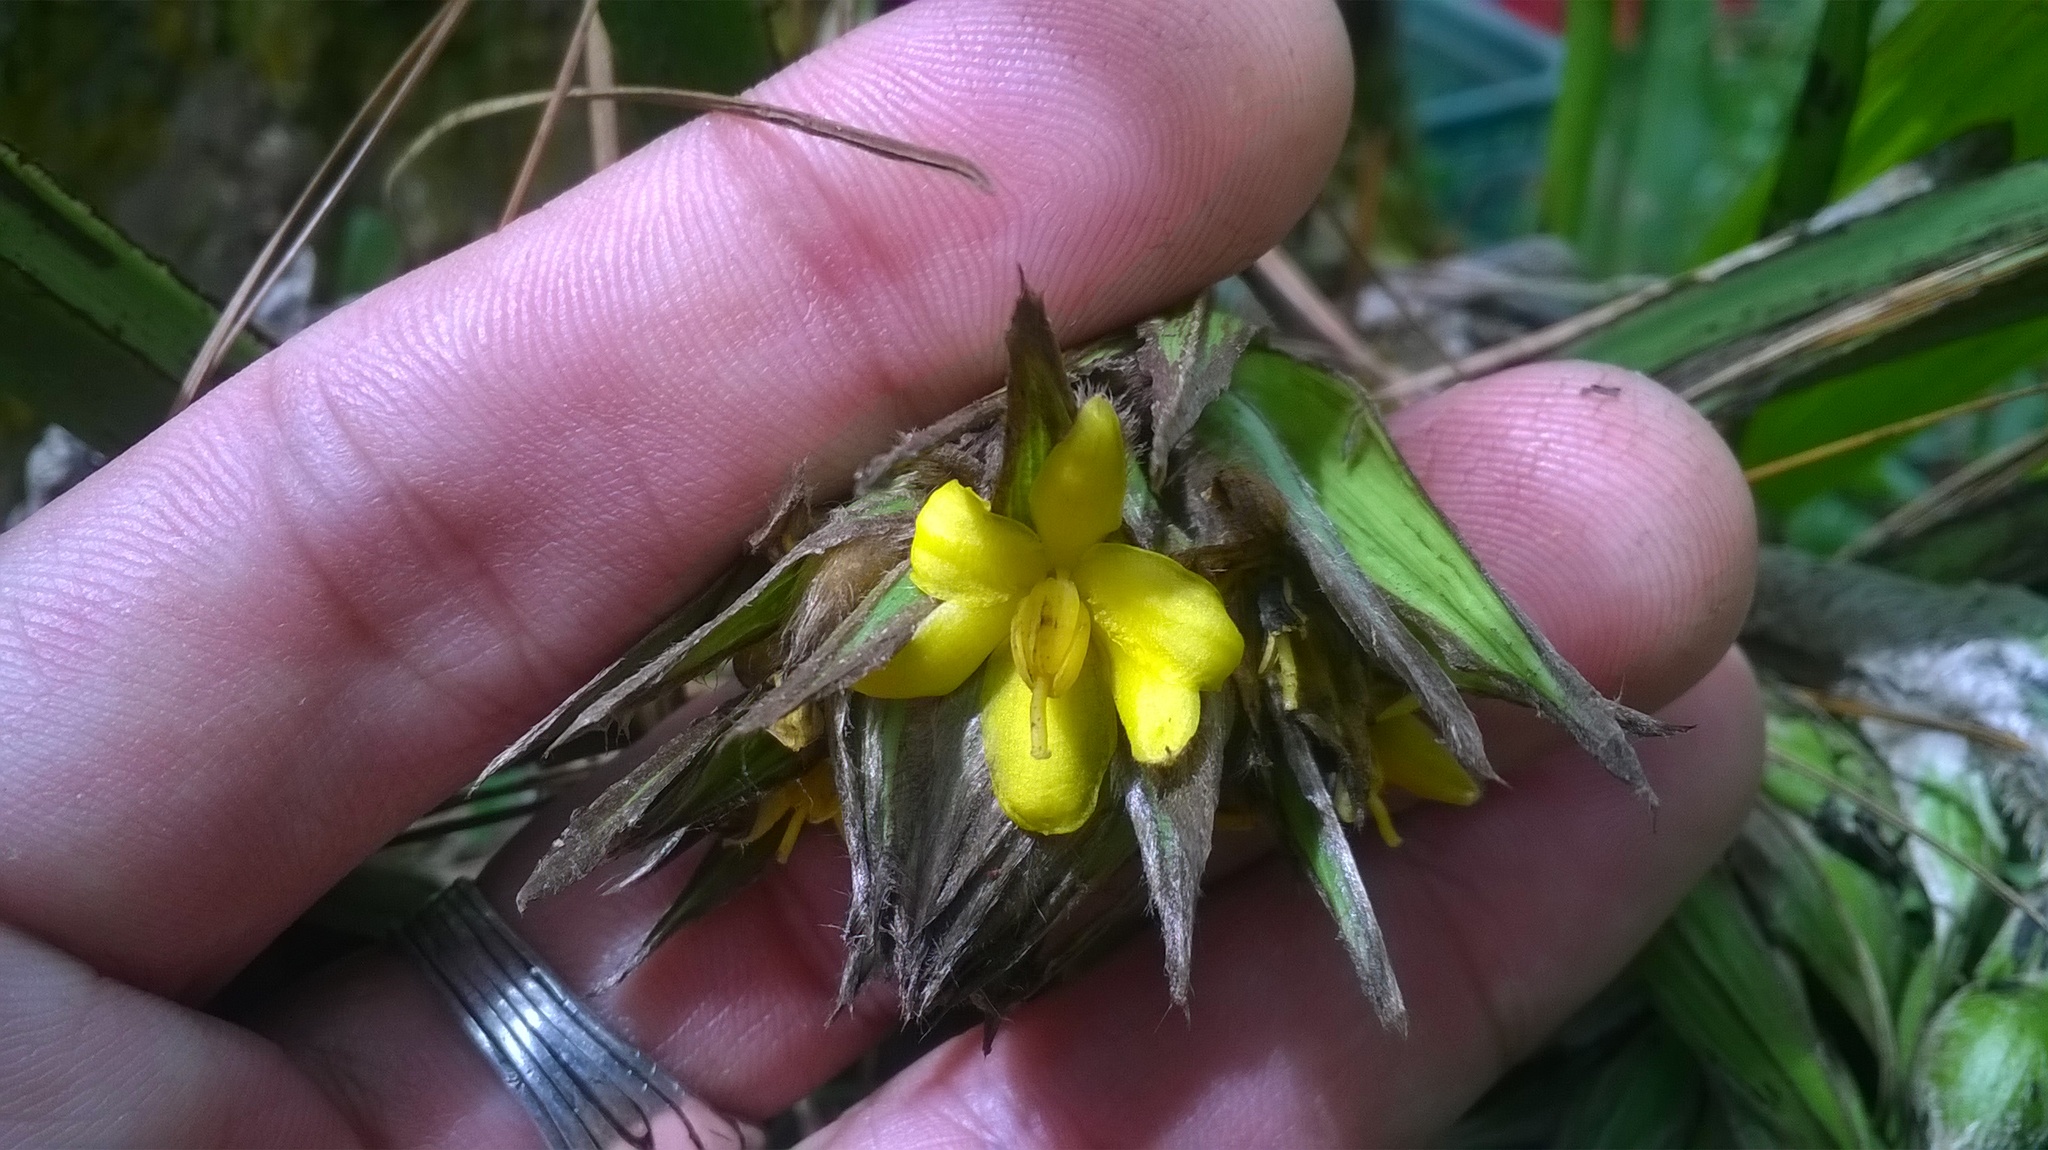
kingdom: Plantae
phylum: Tracheophyta
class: Liliopsida
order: Asparagales
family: Hypoxidaceae
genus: Curculigo
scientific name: Curculigo capitulata
